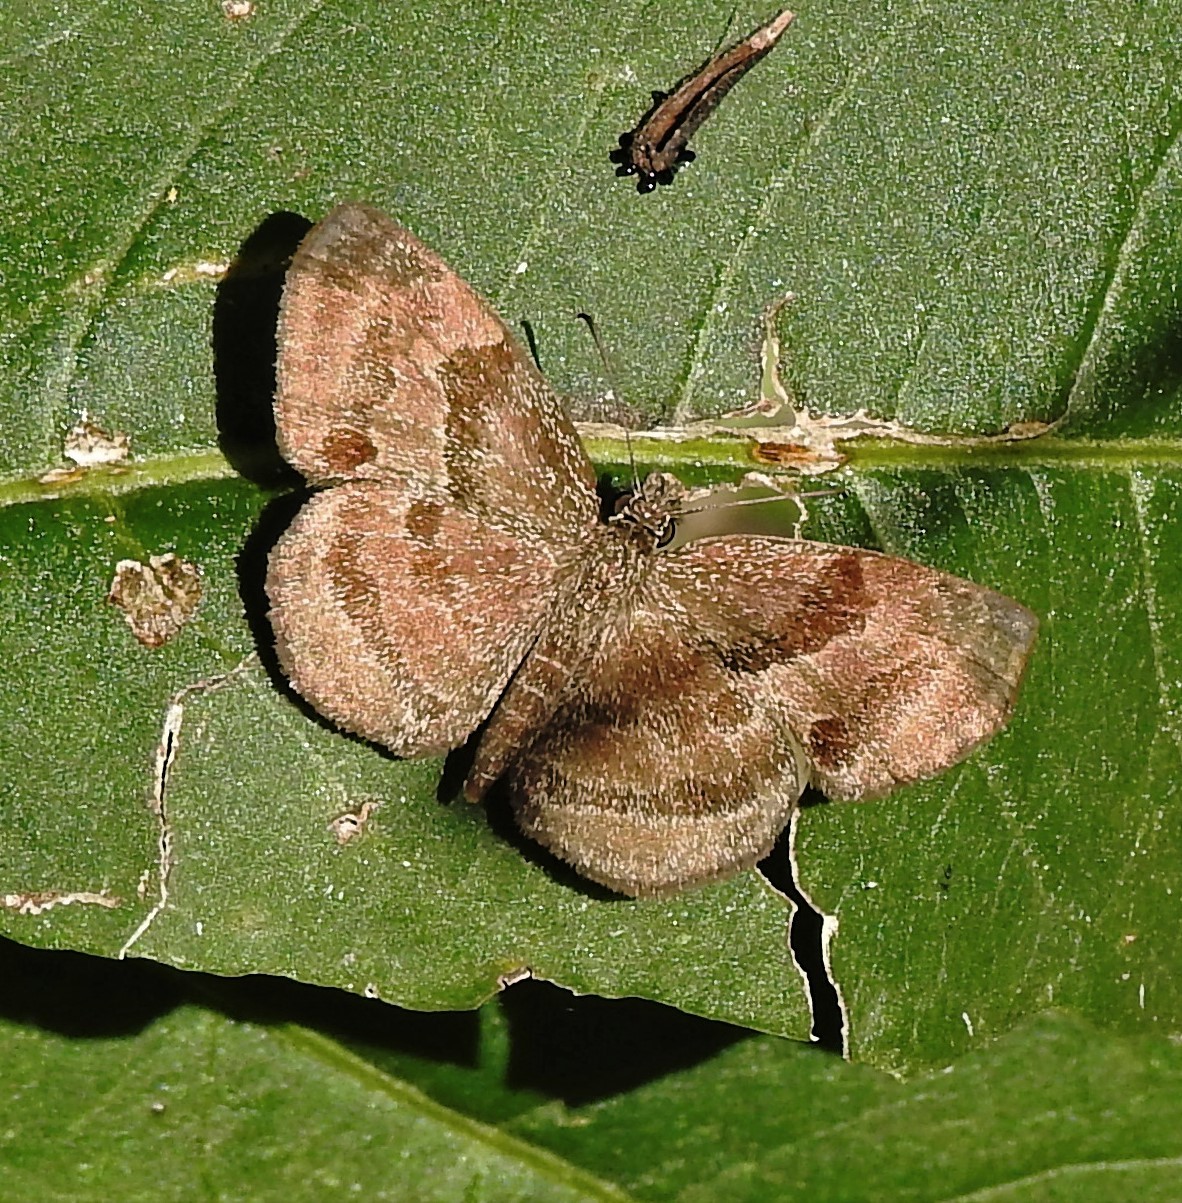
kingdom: Animalia
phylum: Arthropoda
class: Insecta
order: Lepidoptera
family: Hesperiidae
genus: Trina
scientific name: Trina geometrina
